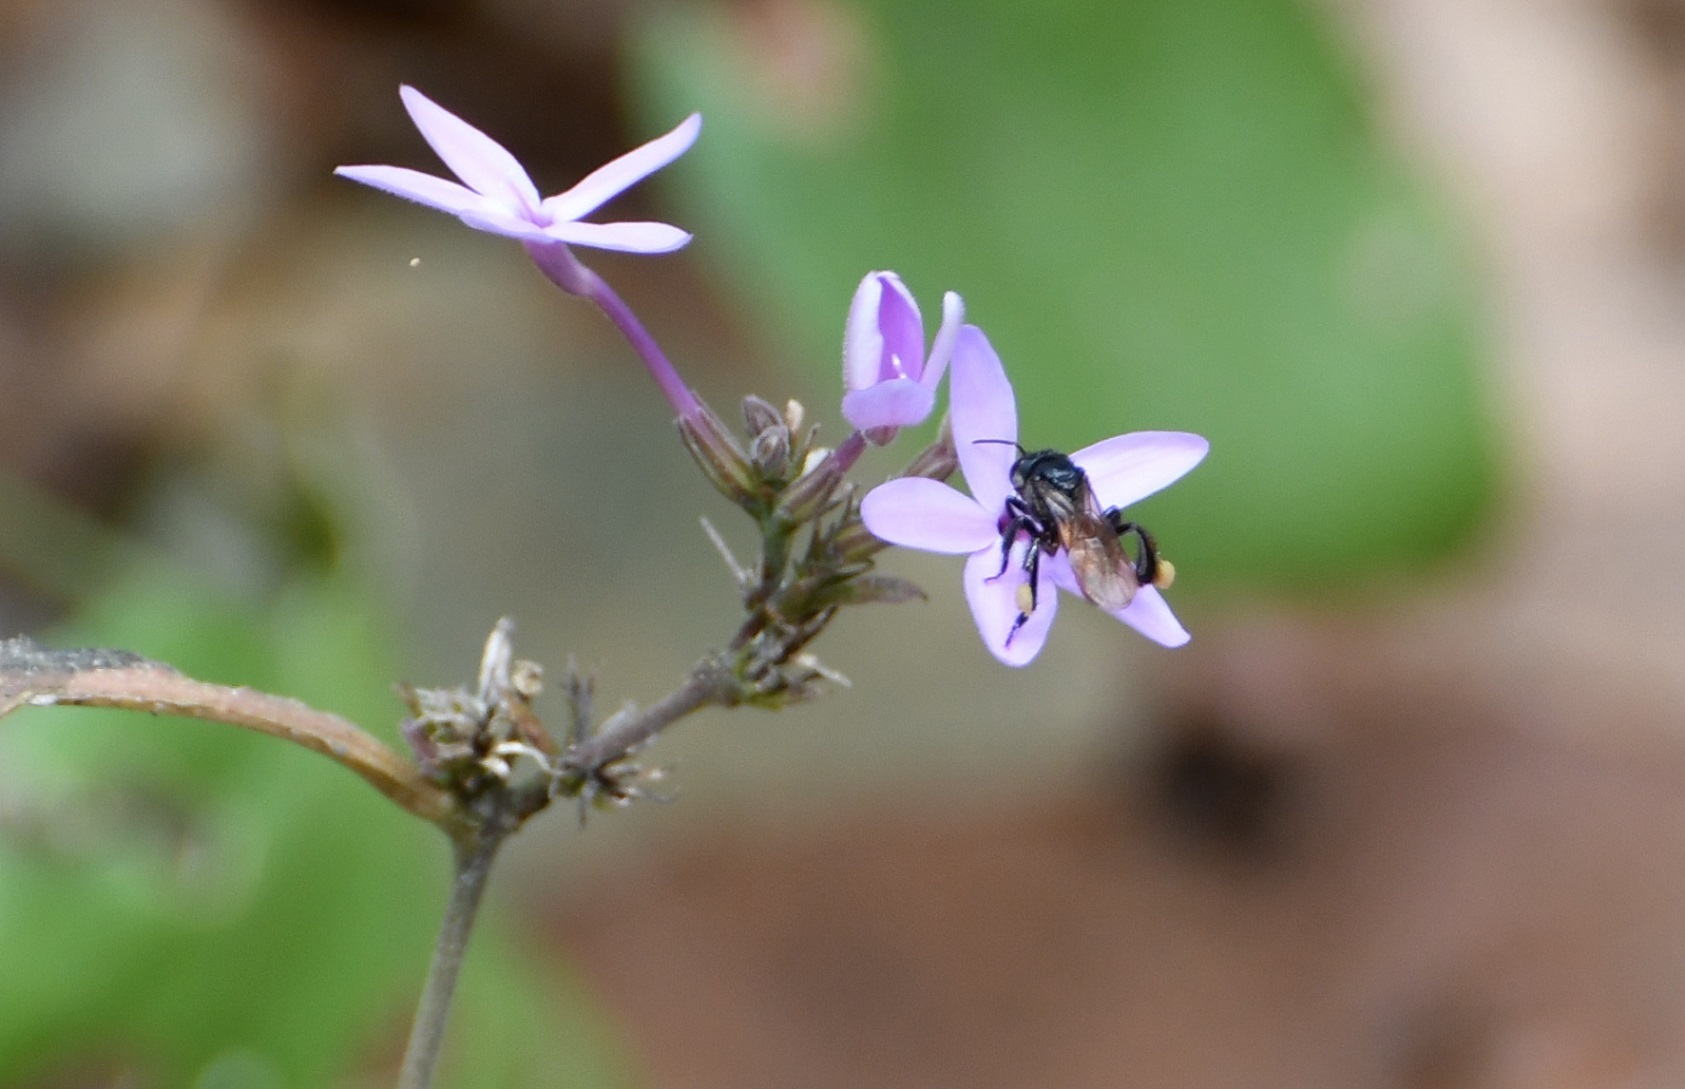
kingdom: Animalia
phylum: Arthropoda
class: Insecta
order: Hymenoptera
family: Apidae
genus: Trigona
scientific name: Trigona fulviventris
